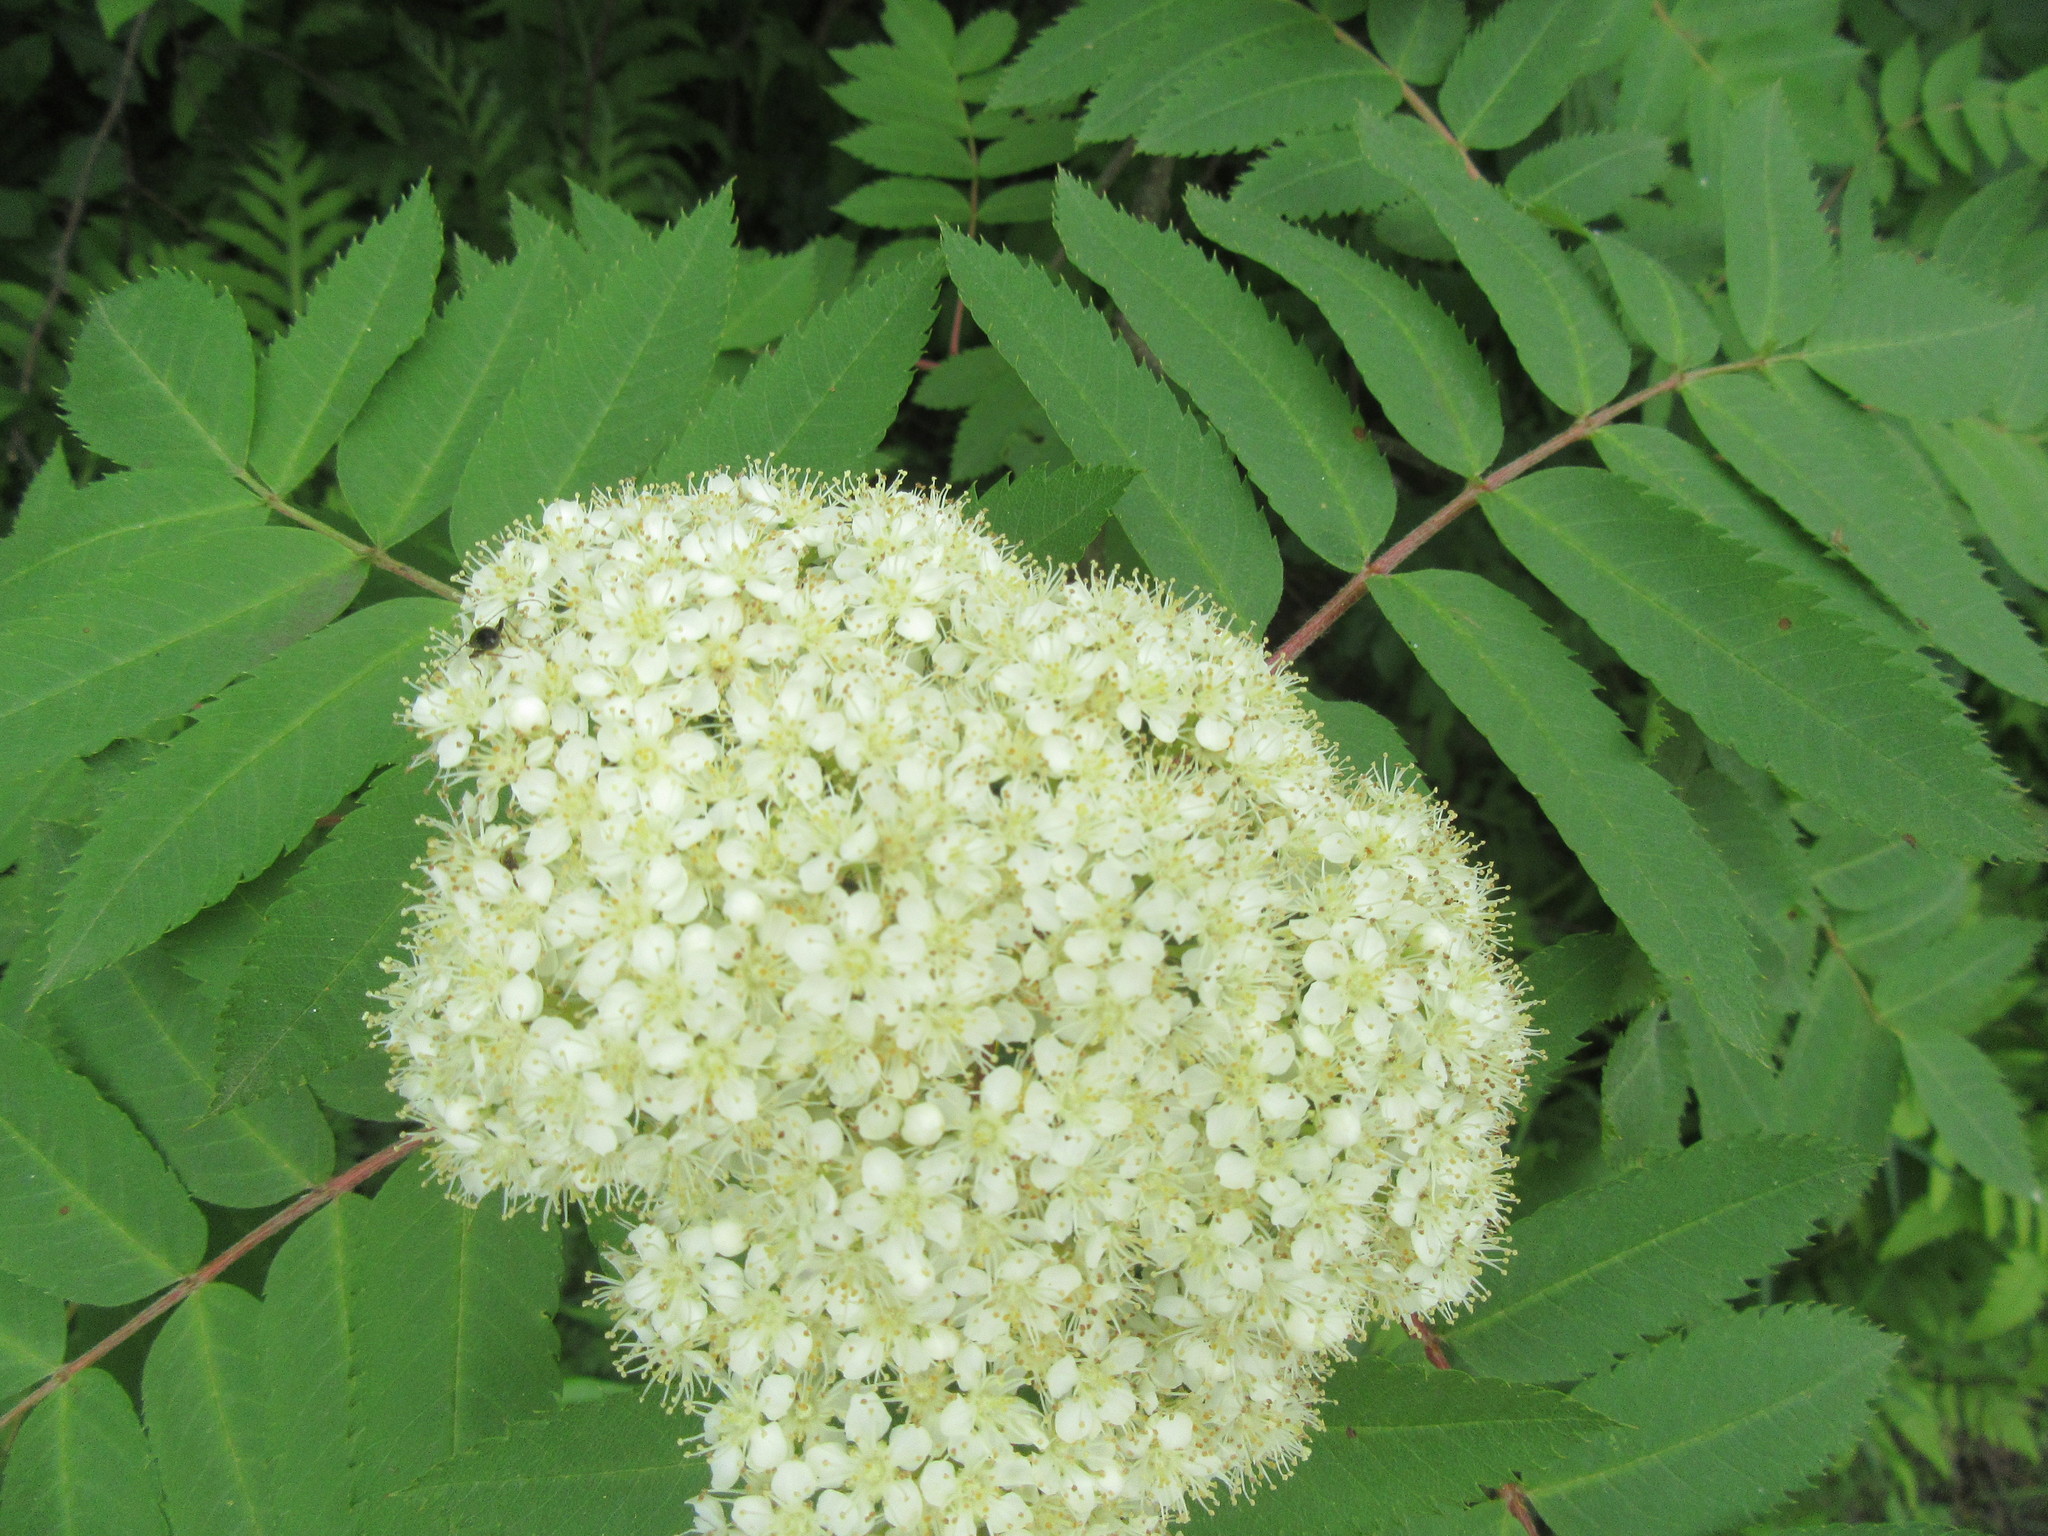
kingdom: Plantae
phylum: Tracheophyta
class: Magnoliopsida
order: Rosales
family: Rosaceae
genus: Sorbus
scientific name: Sorbus americana
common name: American mountain-ash
